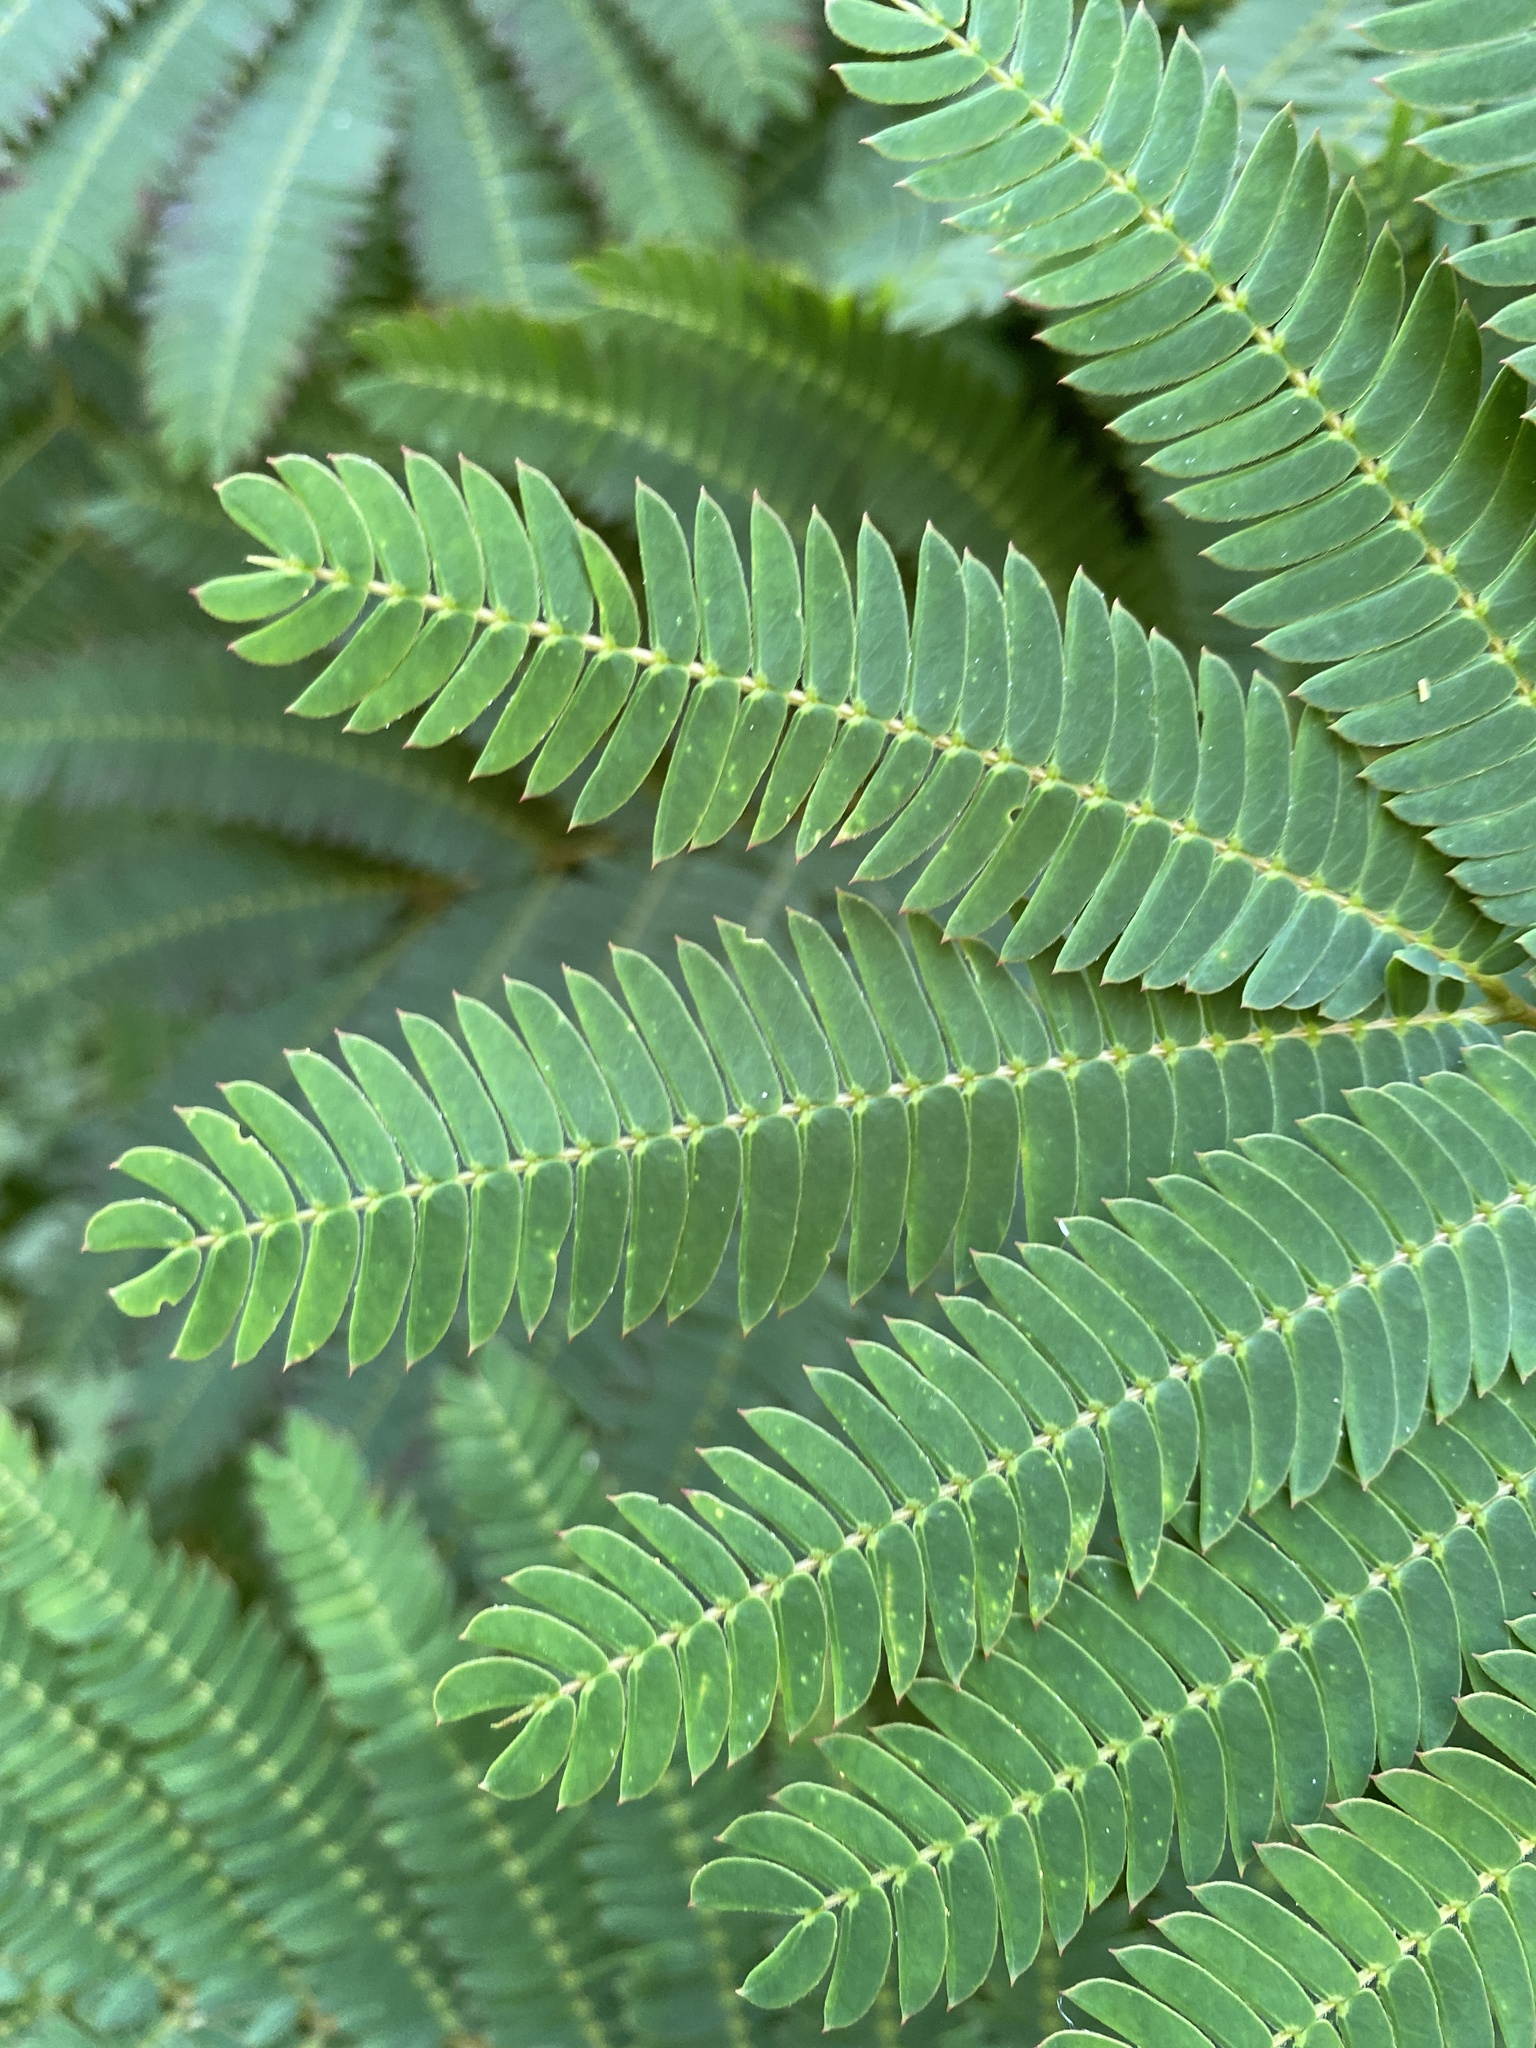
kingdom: Plantae
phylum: Tracheophyta
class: Magnoliopsida
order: Fabales
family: Fabaceae
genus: Albizia
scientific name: Albizia julibrissin
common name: Silktree
